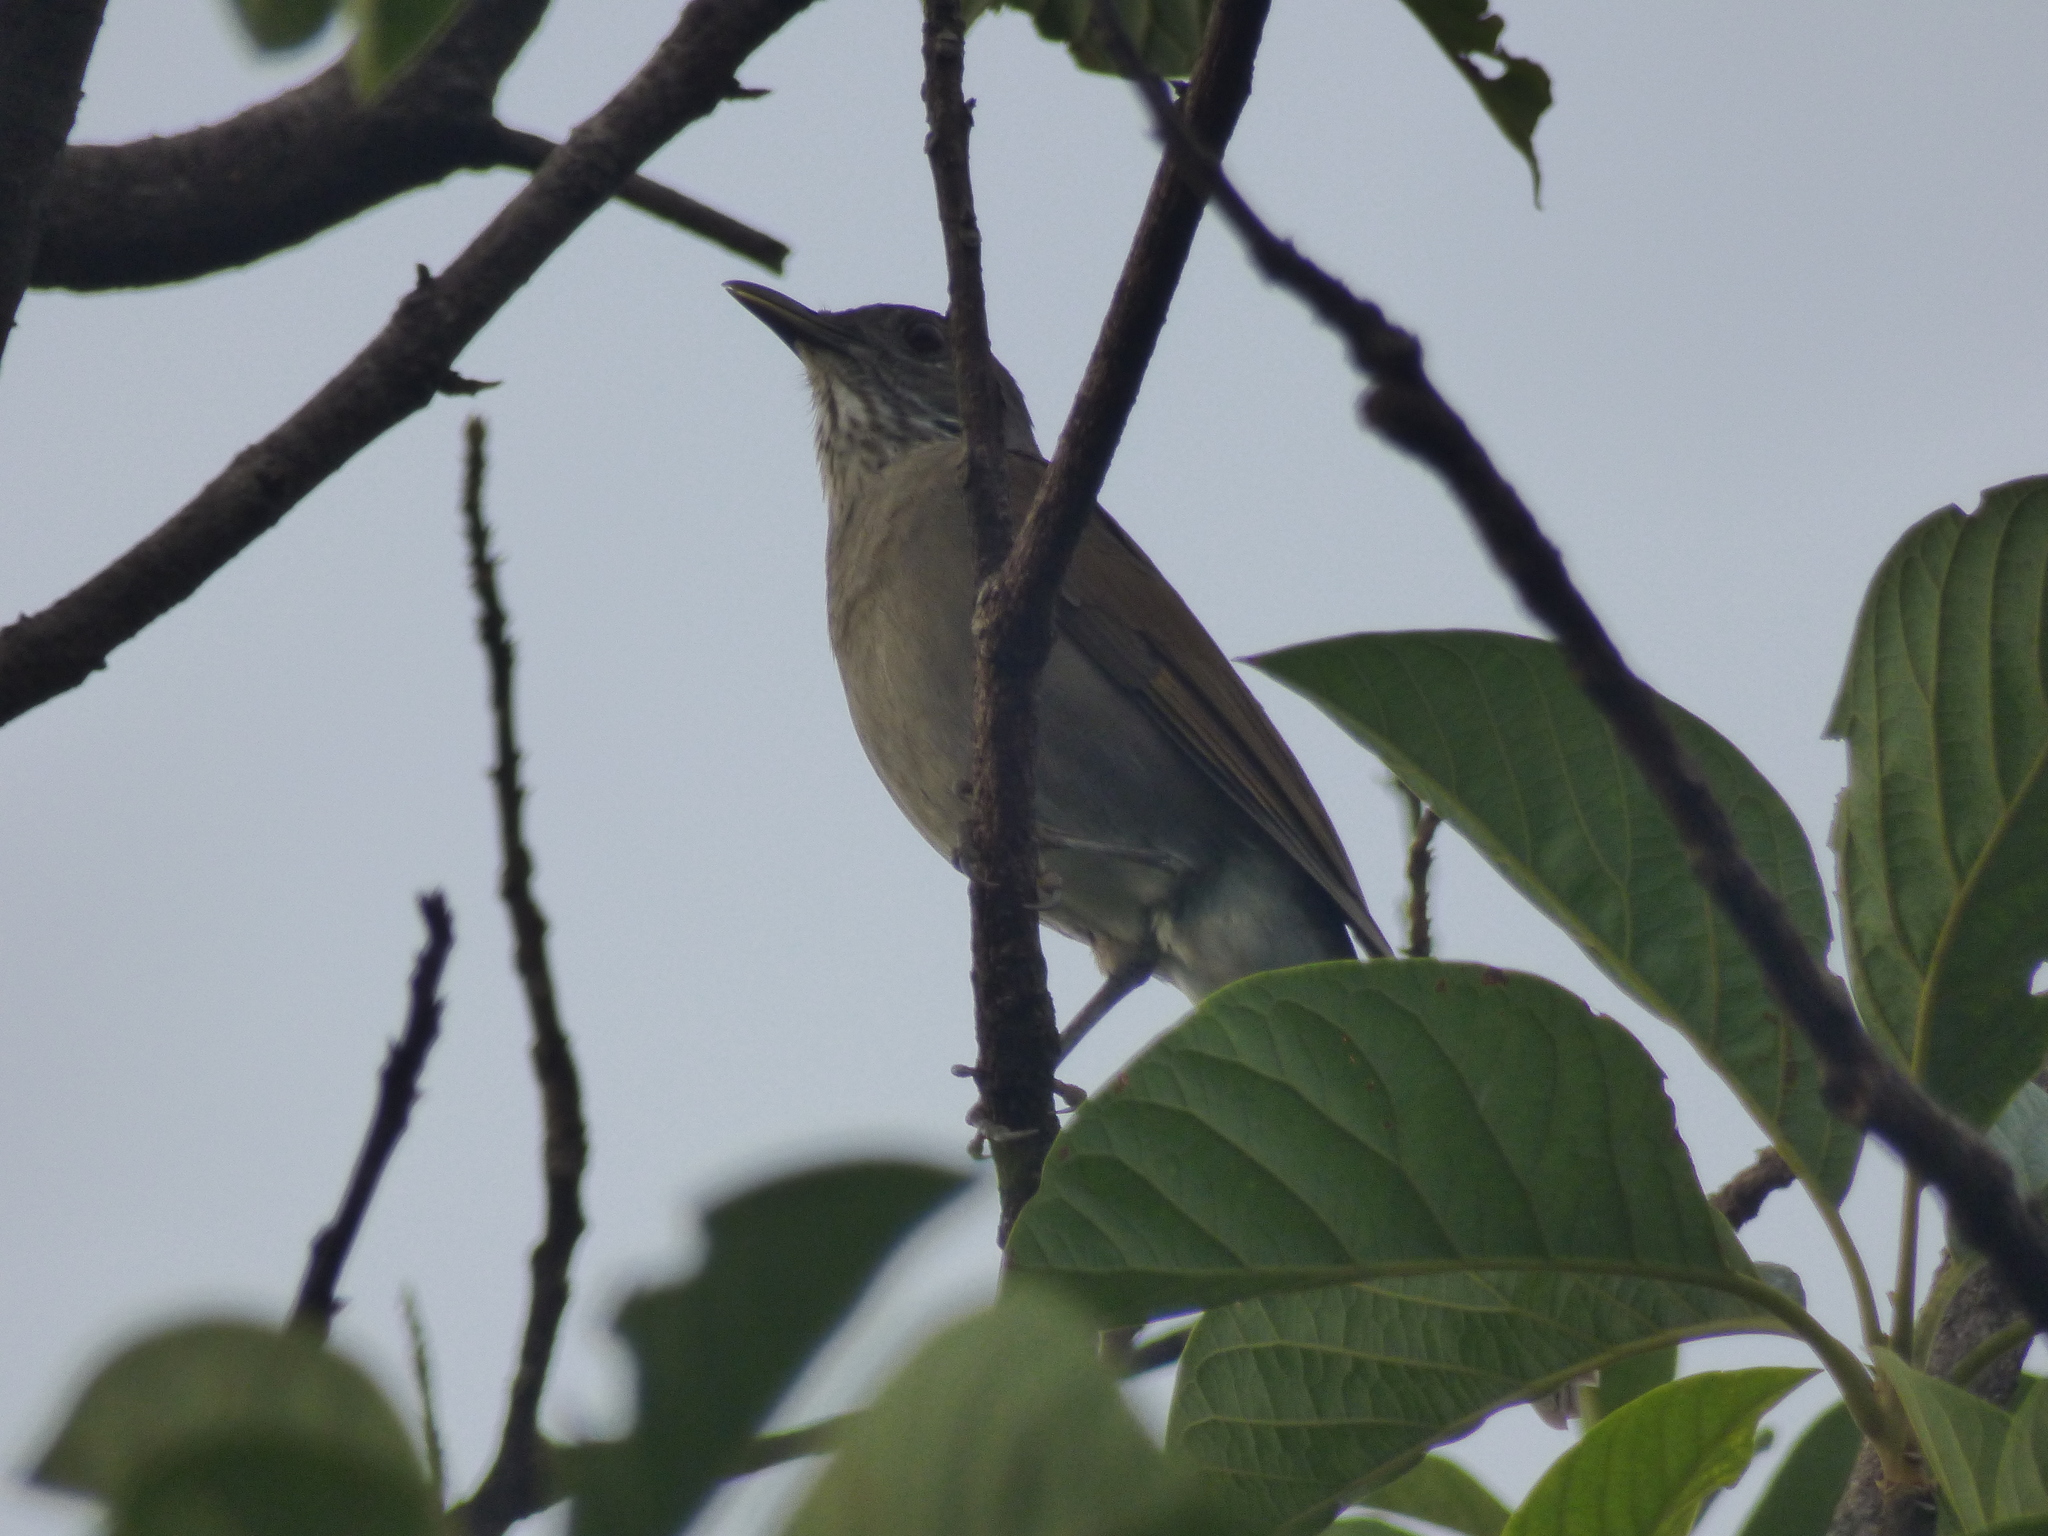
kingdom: Animalia
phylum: Chordata
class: Aves
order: Passeriformes
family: Turdidae
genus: Turdus
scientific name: Turdus leucomelas
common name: Pale-breasted thrush
